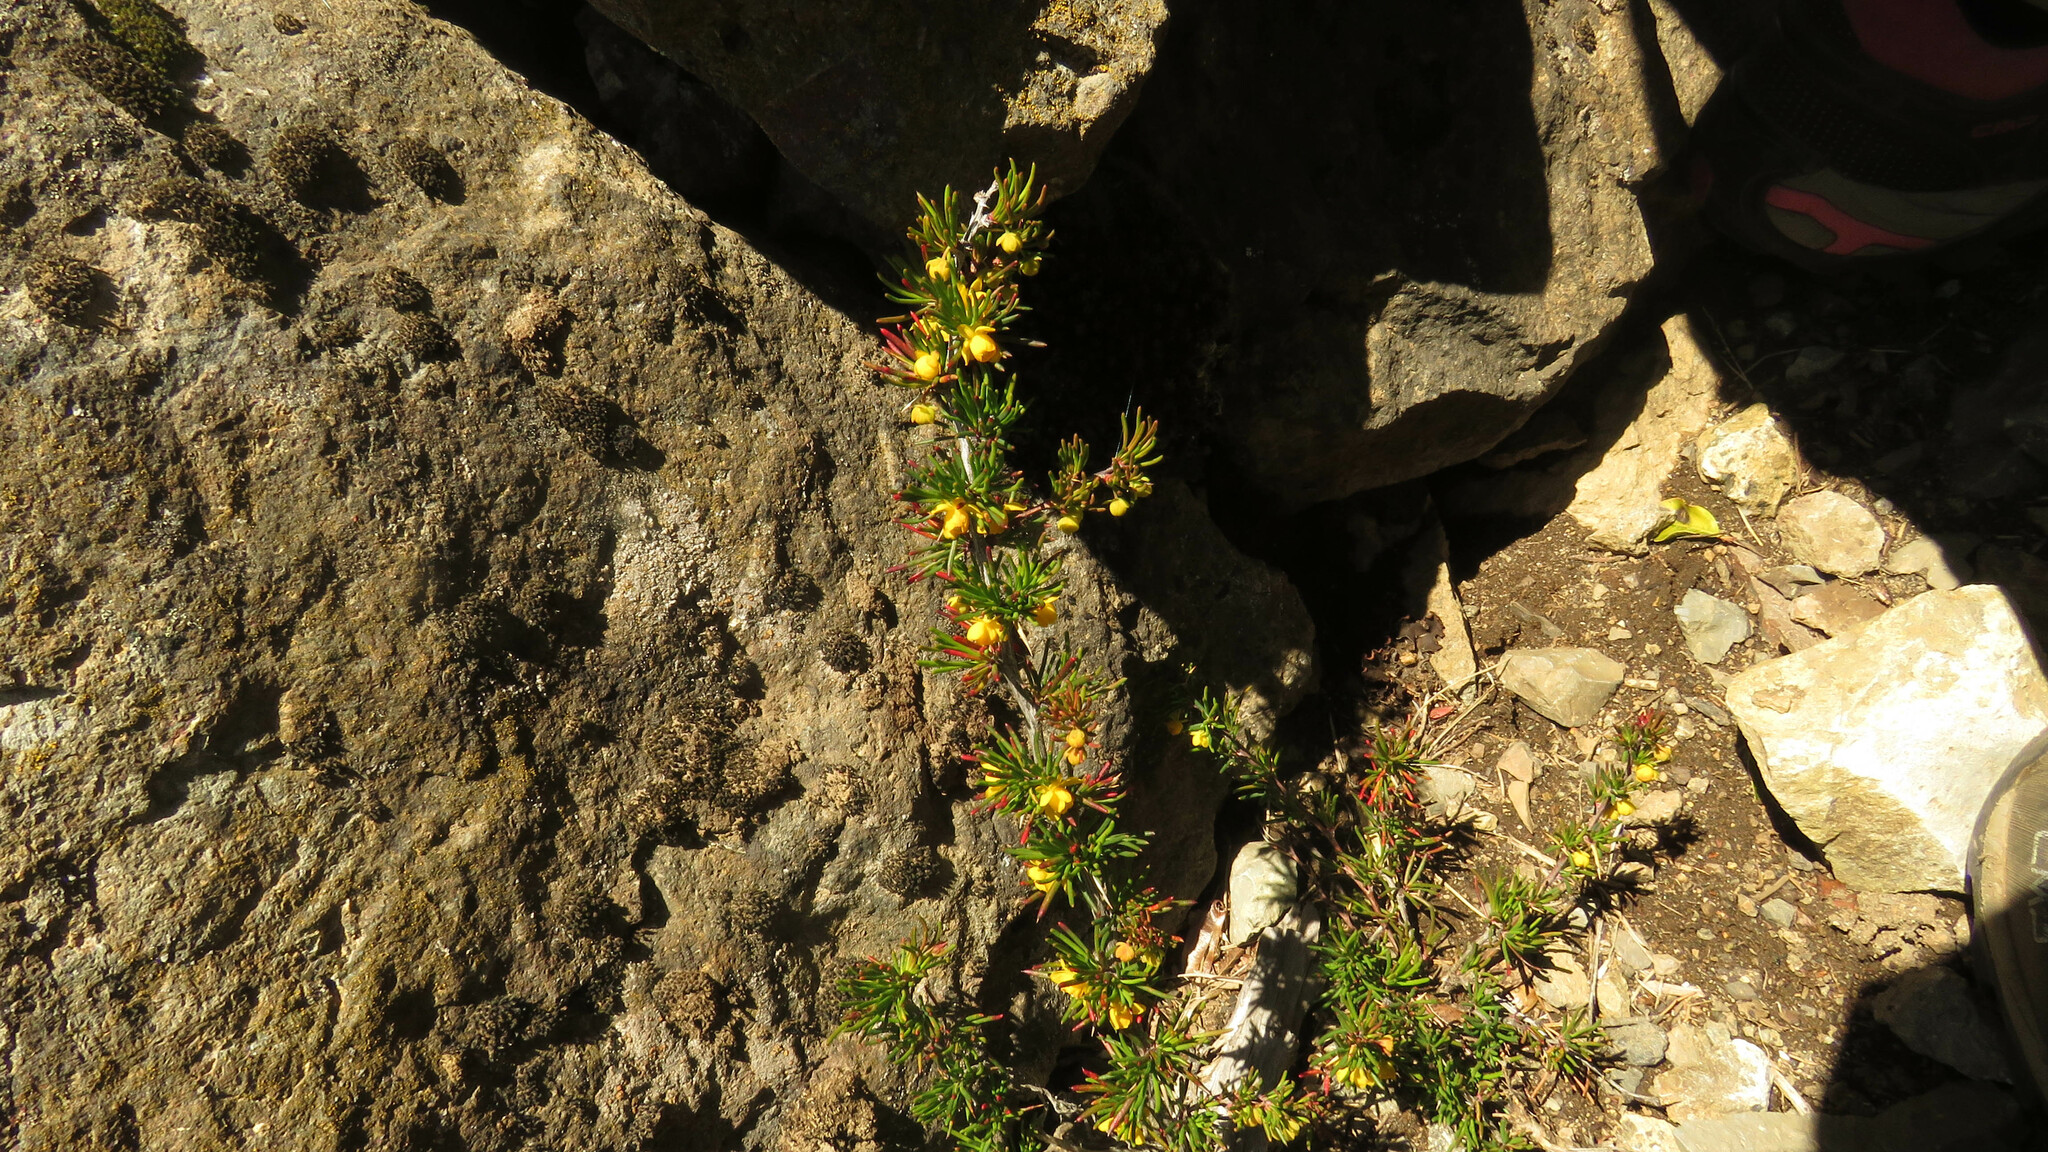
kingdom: Plantae
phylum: Tracheophyta
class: Magnoliopsida
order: Ranunculales
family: Berberidaceae
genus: Berberis
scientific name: Berberis empetrifolia
